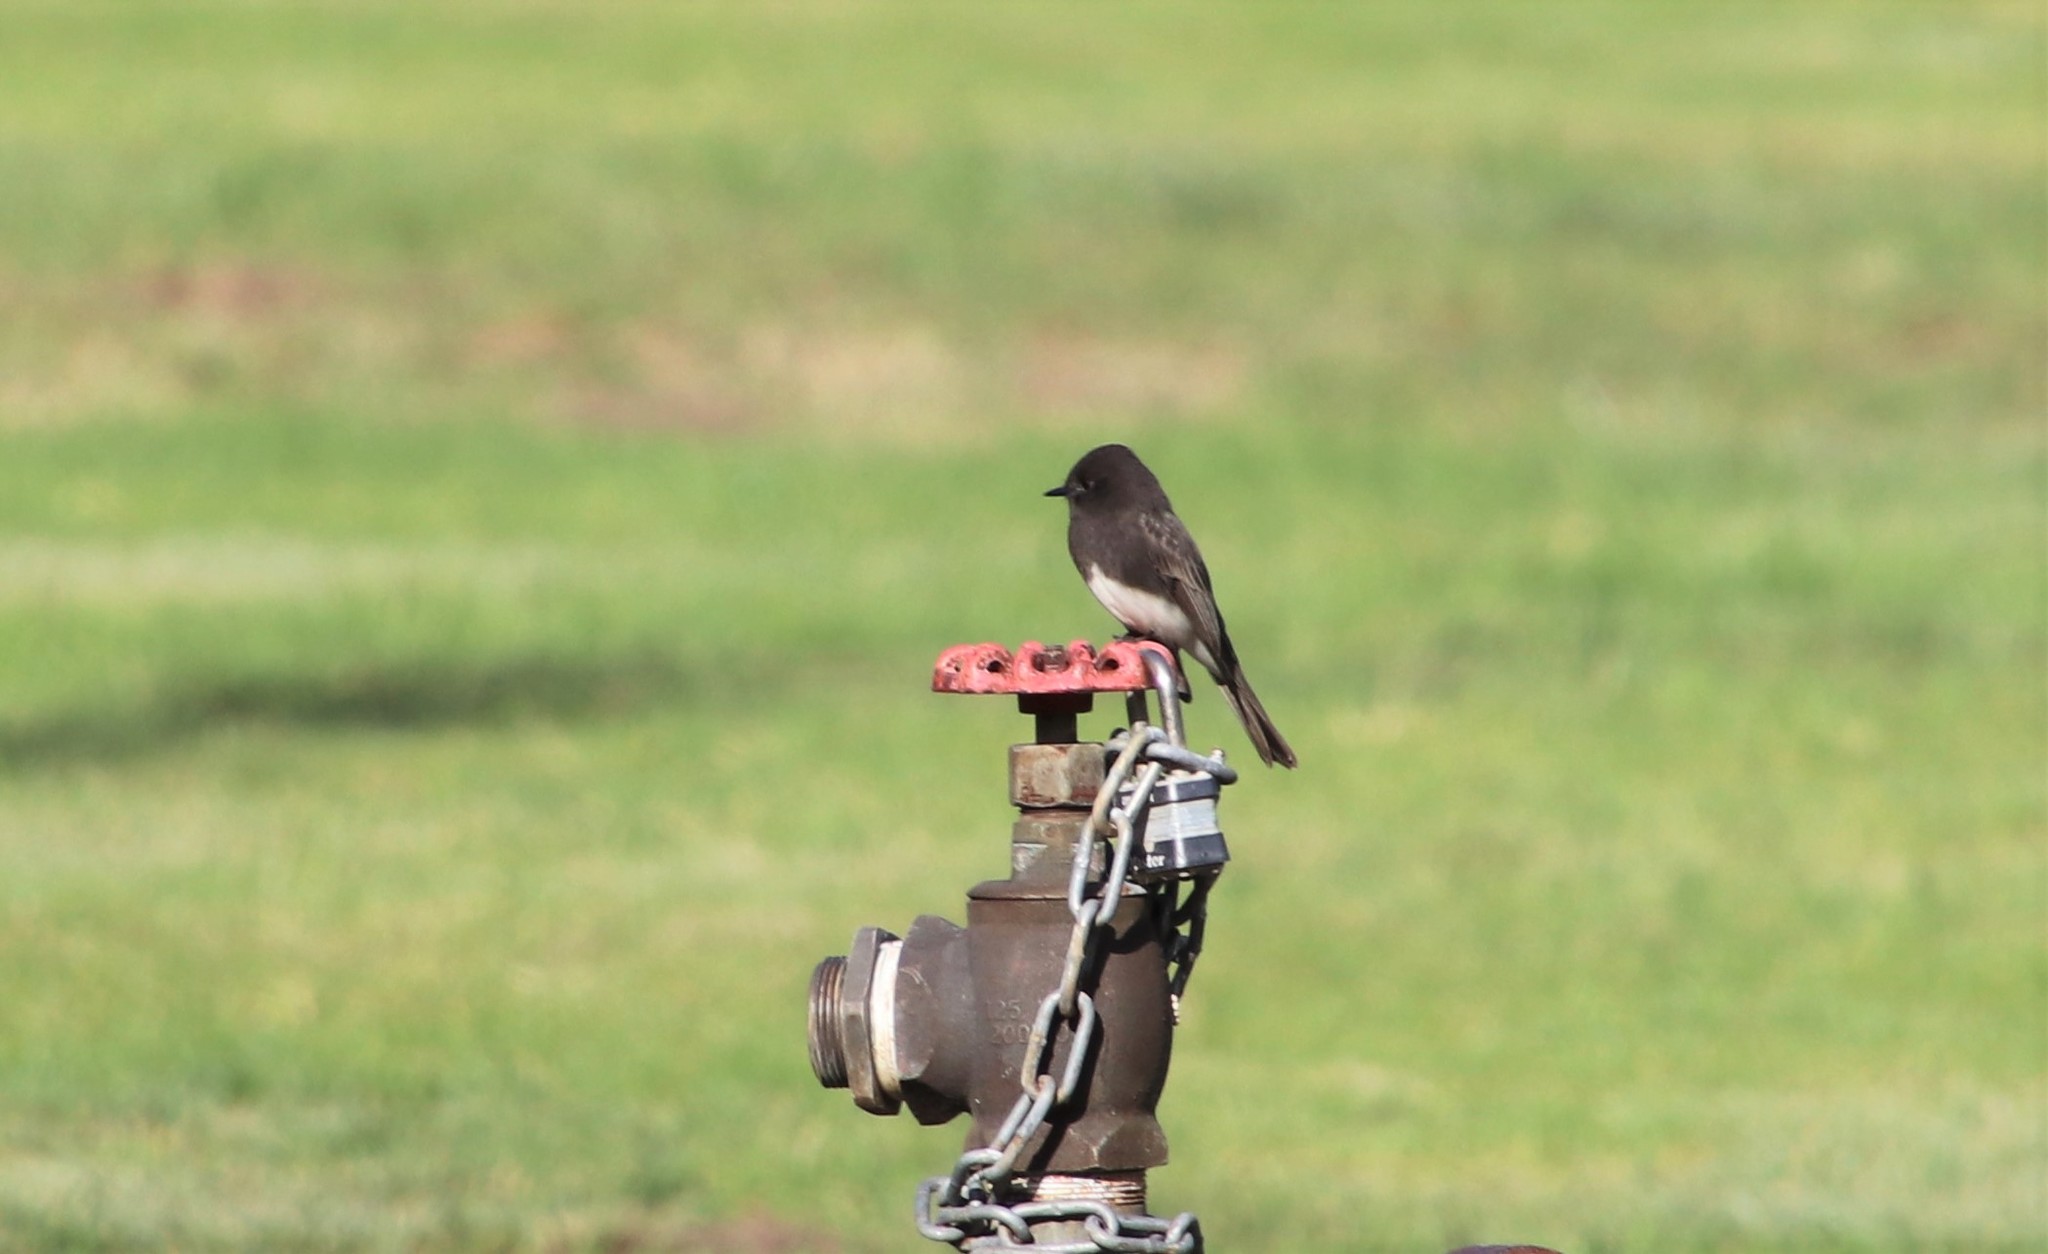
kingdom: Animalia
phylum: Chordata
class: Aves
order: Passeriformes
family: Tyrannidae
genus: Sayornis
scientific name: Sayornis nigricans
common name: Black phoebe
